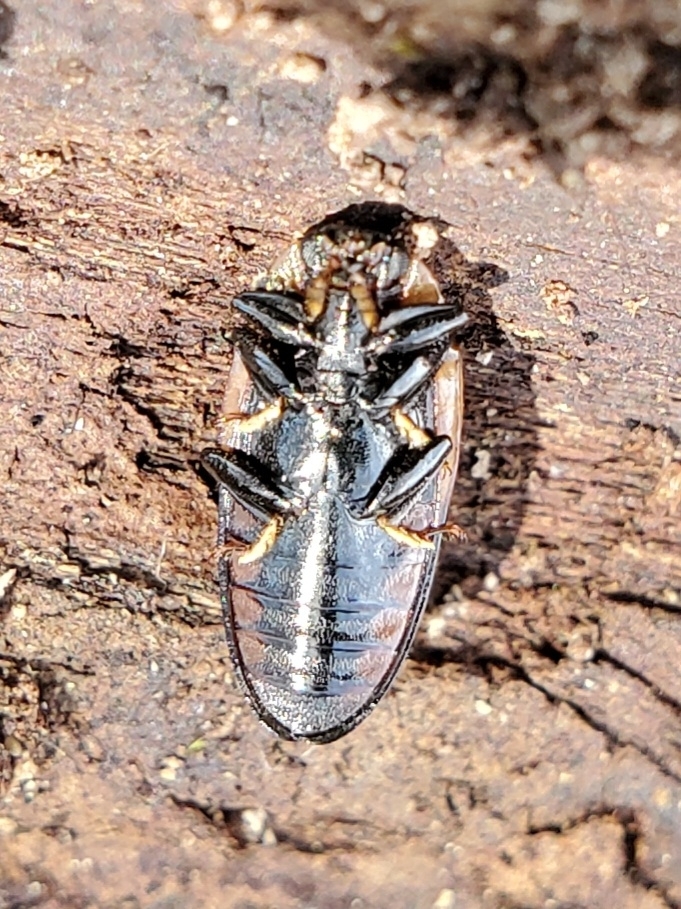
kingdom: Animalia
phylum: Arthropoda
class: Insecta
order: Coleoptera
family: Erotylidae
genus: Ischyrus
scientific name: Ischyrus quadripunctatus
